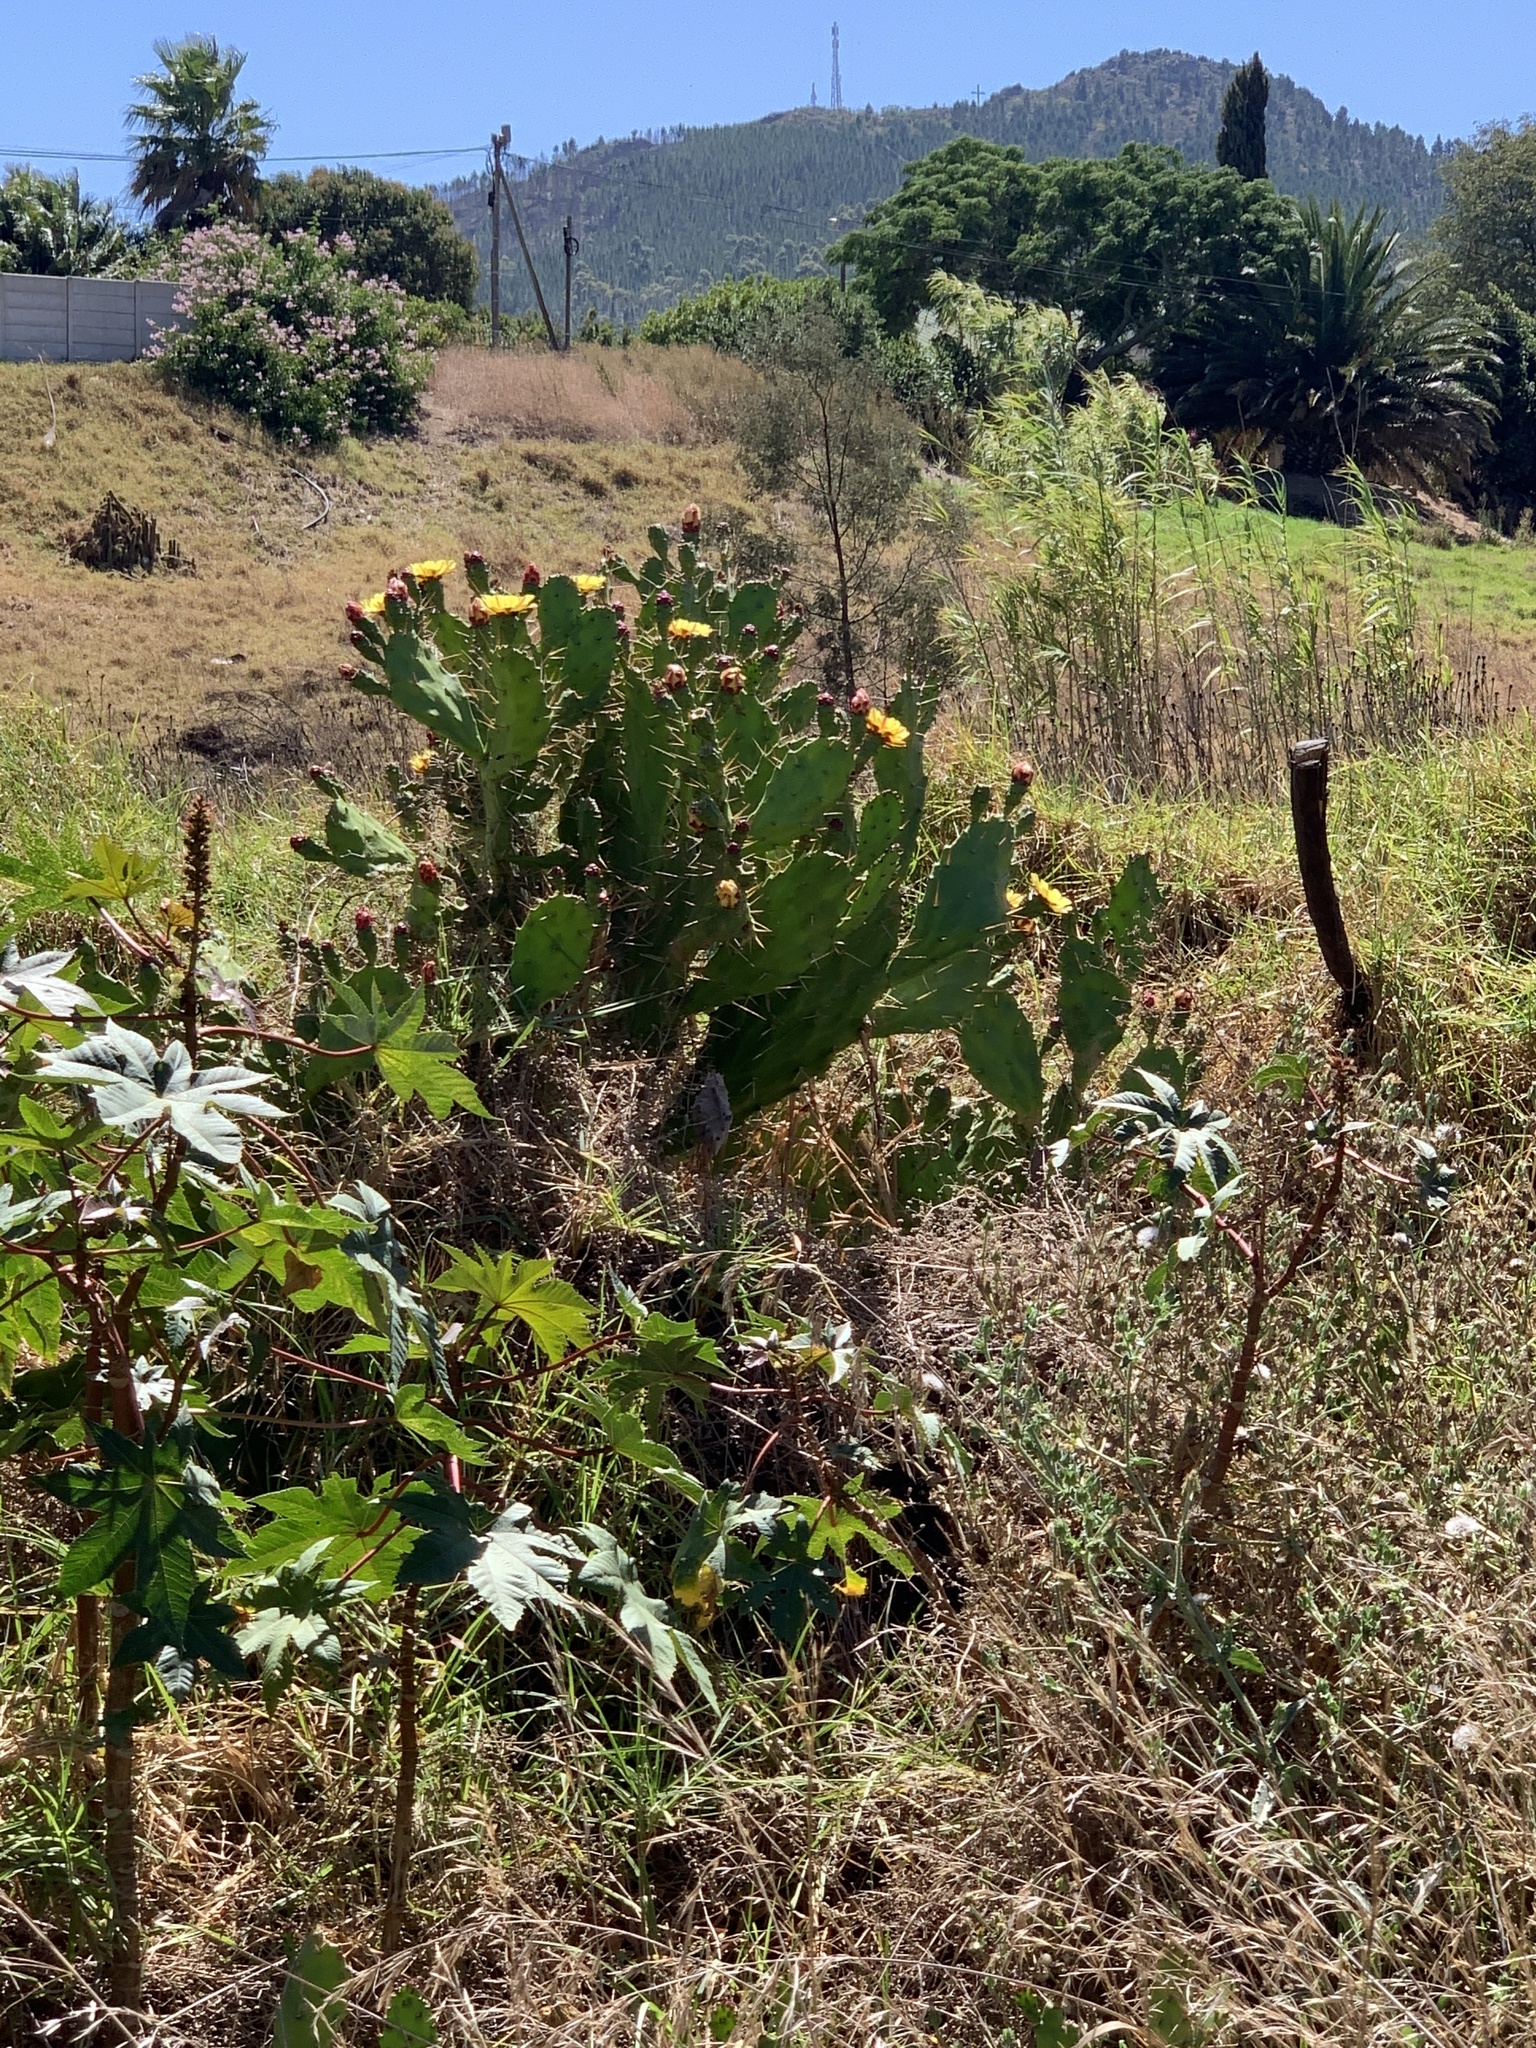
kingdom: Plantae
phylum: Tracheophyta
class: Magnoliopsida
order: Caryophyllales
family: Cactaceae
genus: Opuntia
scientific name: Opuntia monacantha
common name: Common pricklypear
